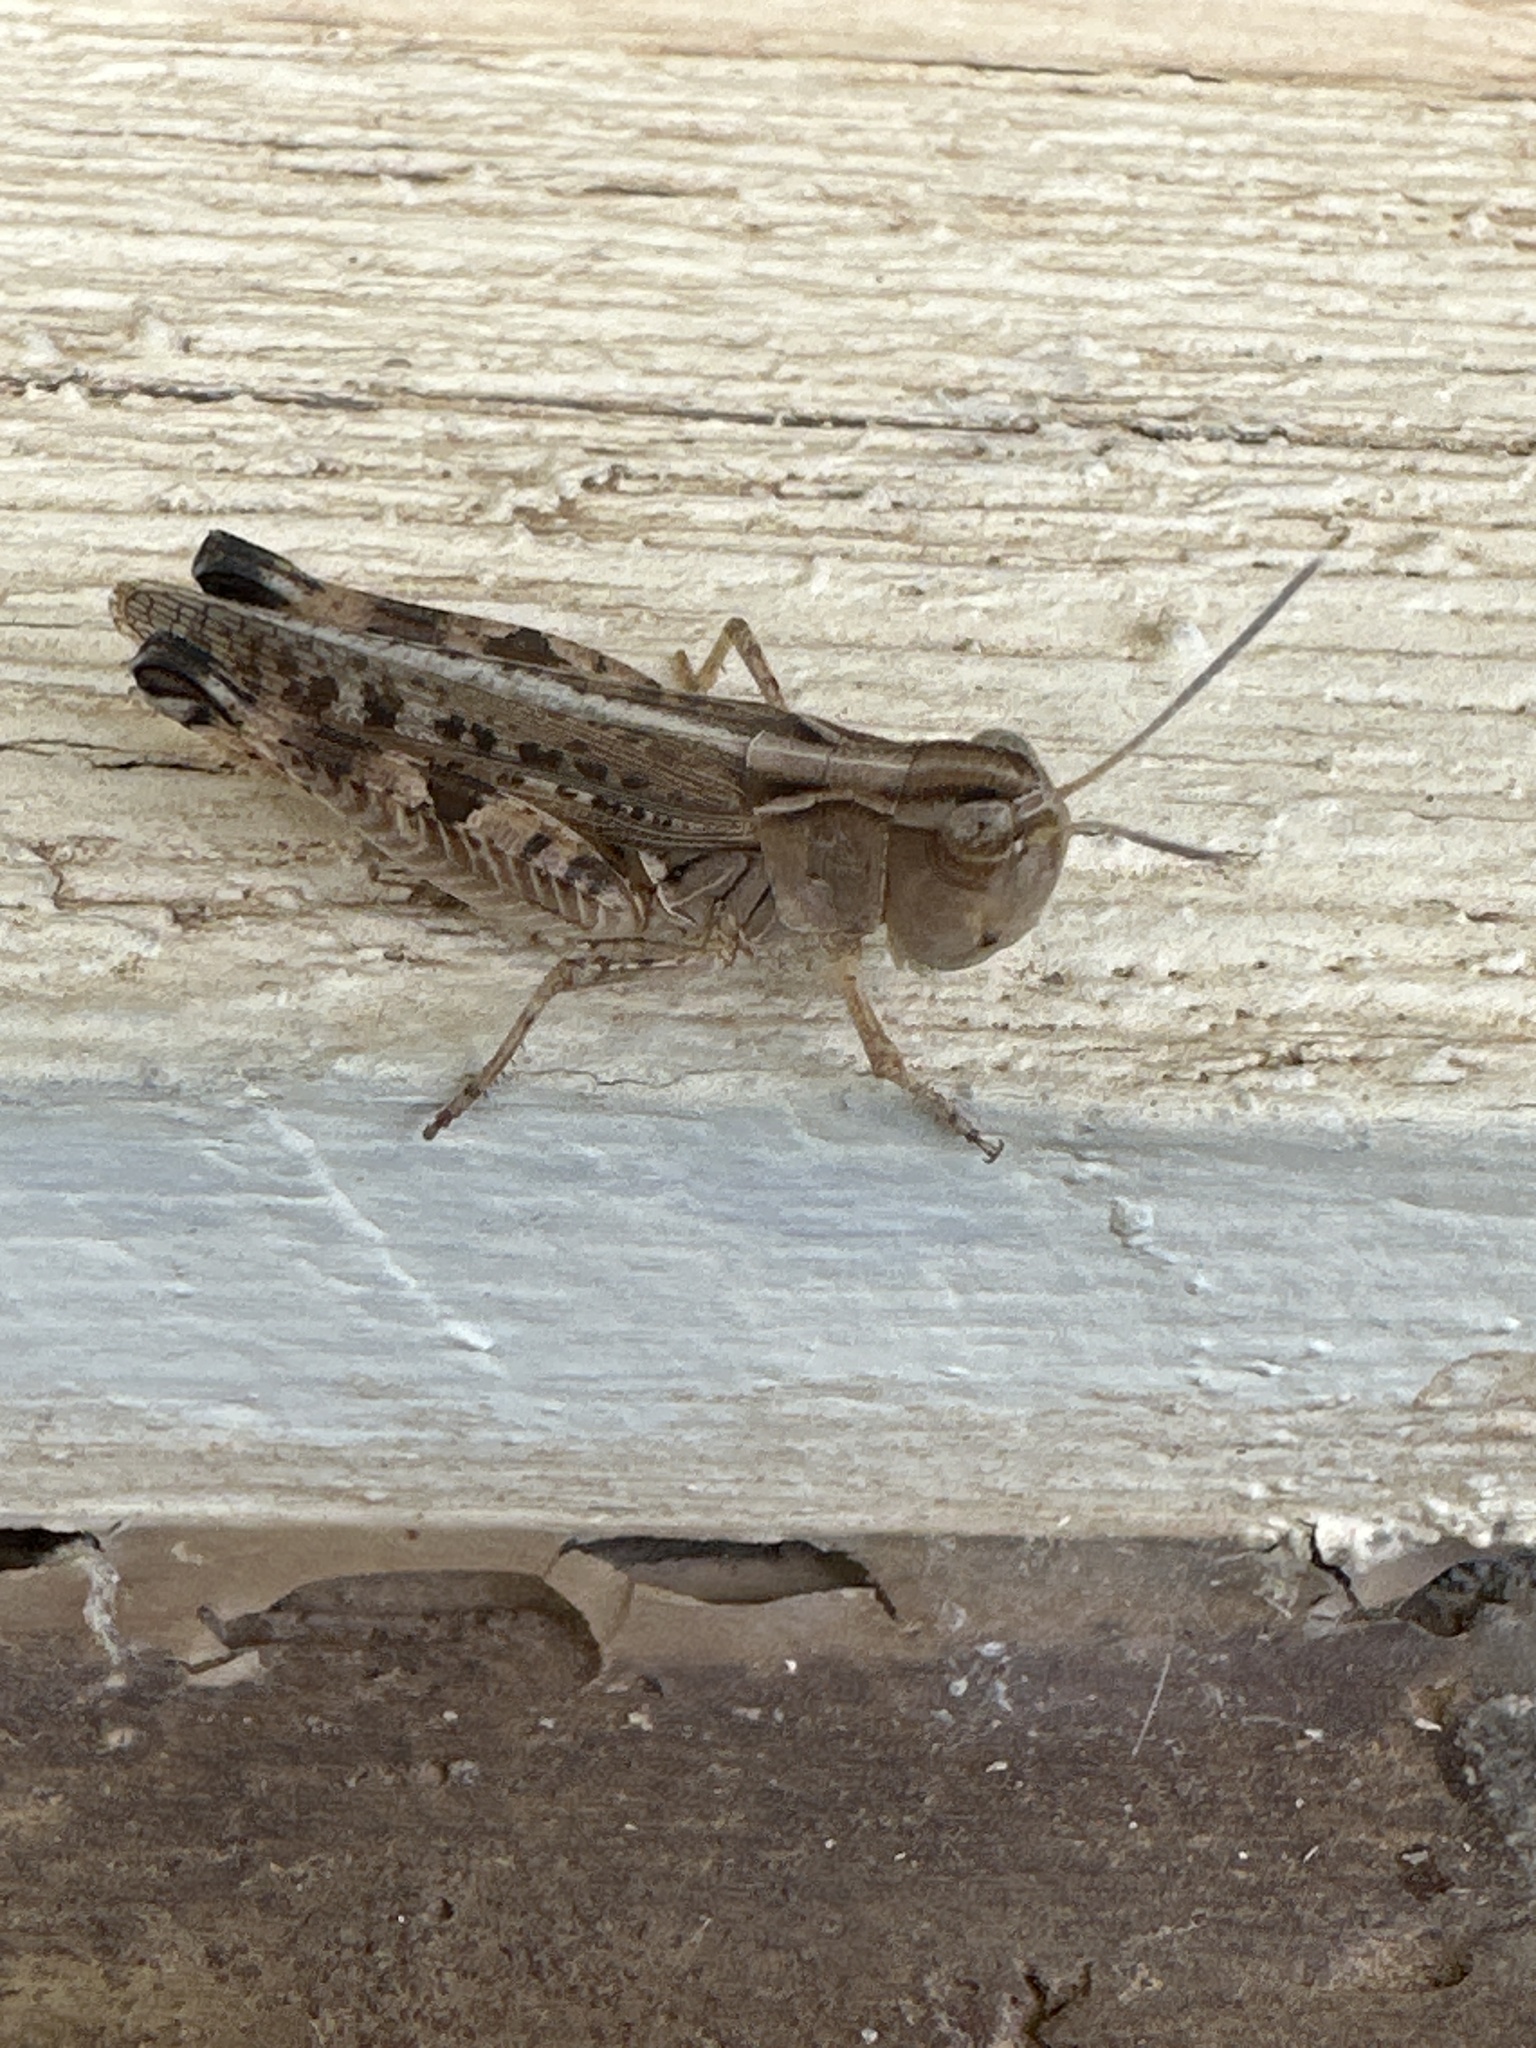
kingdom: Animalia
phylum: Arthropoda
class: Insecta
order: Orthoptera
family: Acrididae
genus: Ageneotettix
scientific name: Ageneotettix deorum
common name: White-whiskered grasshopper
